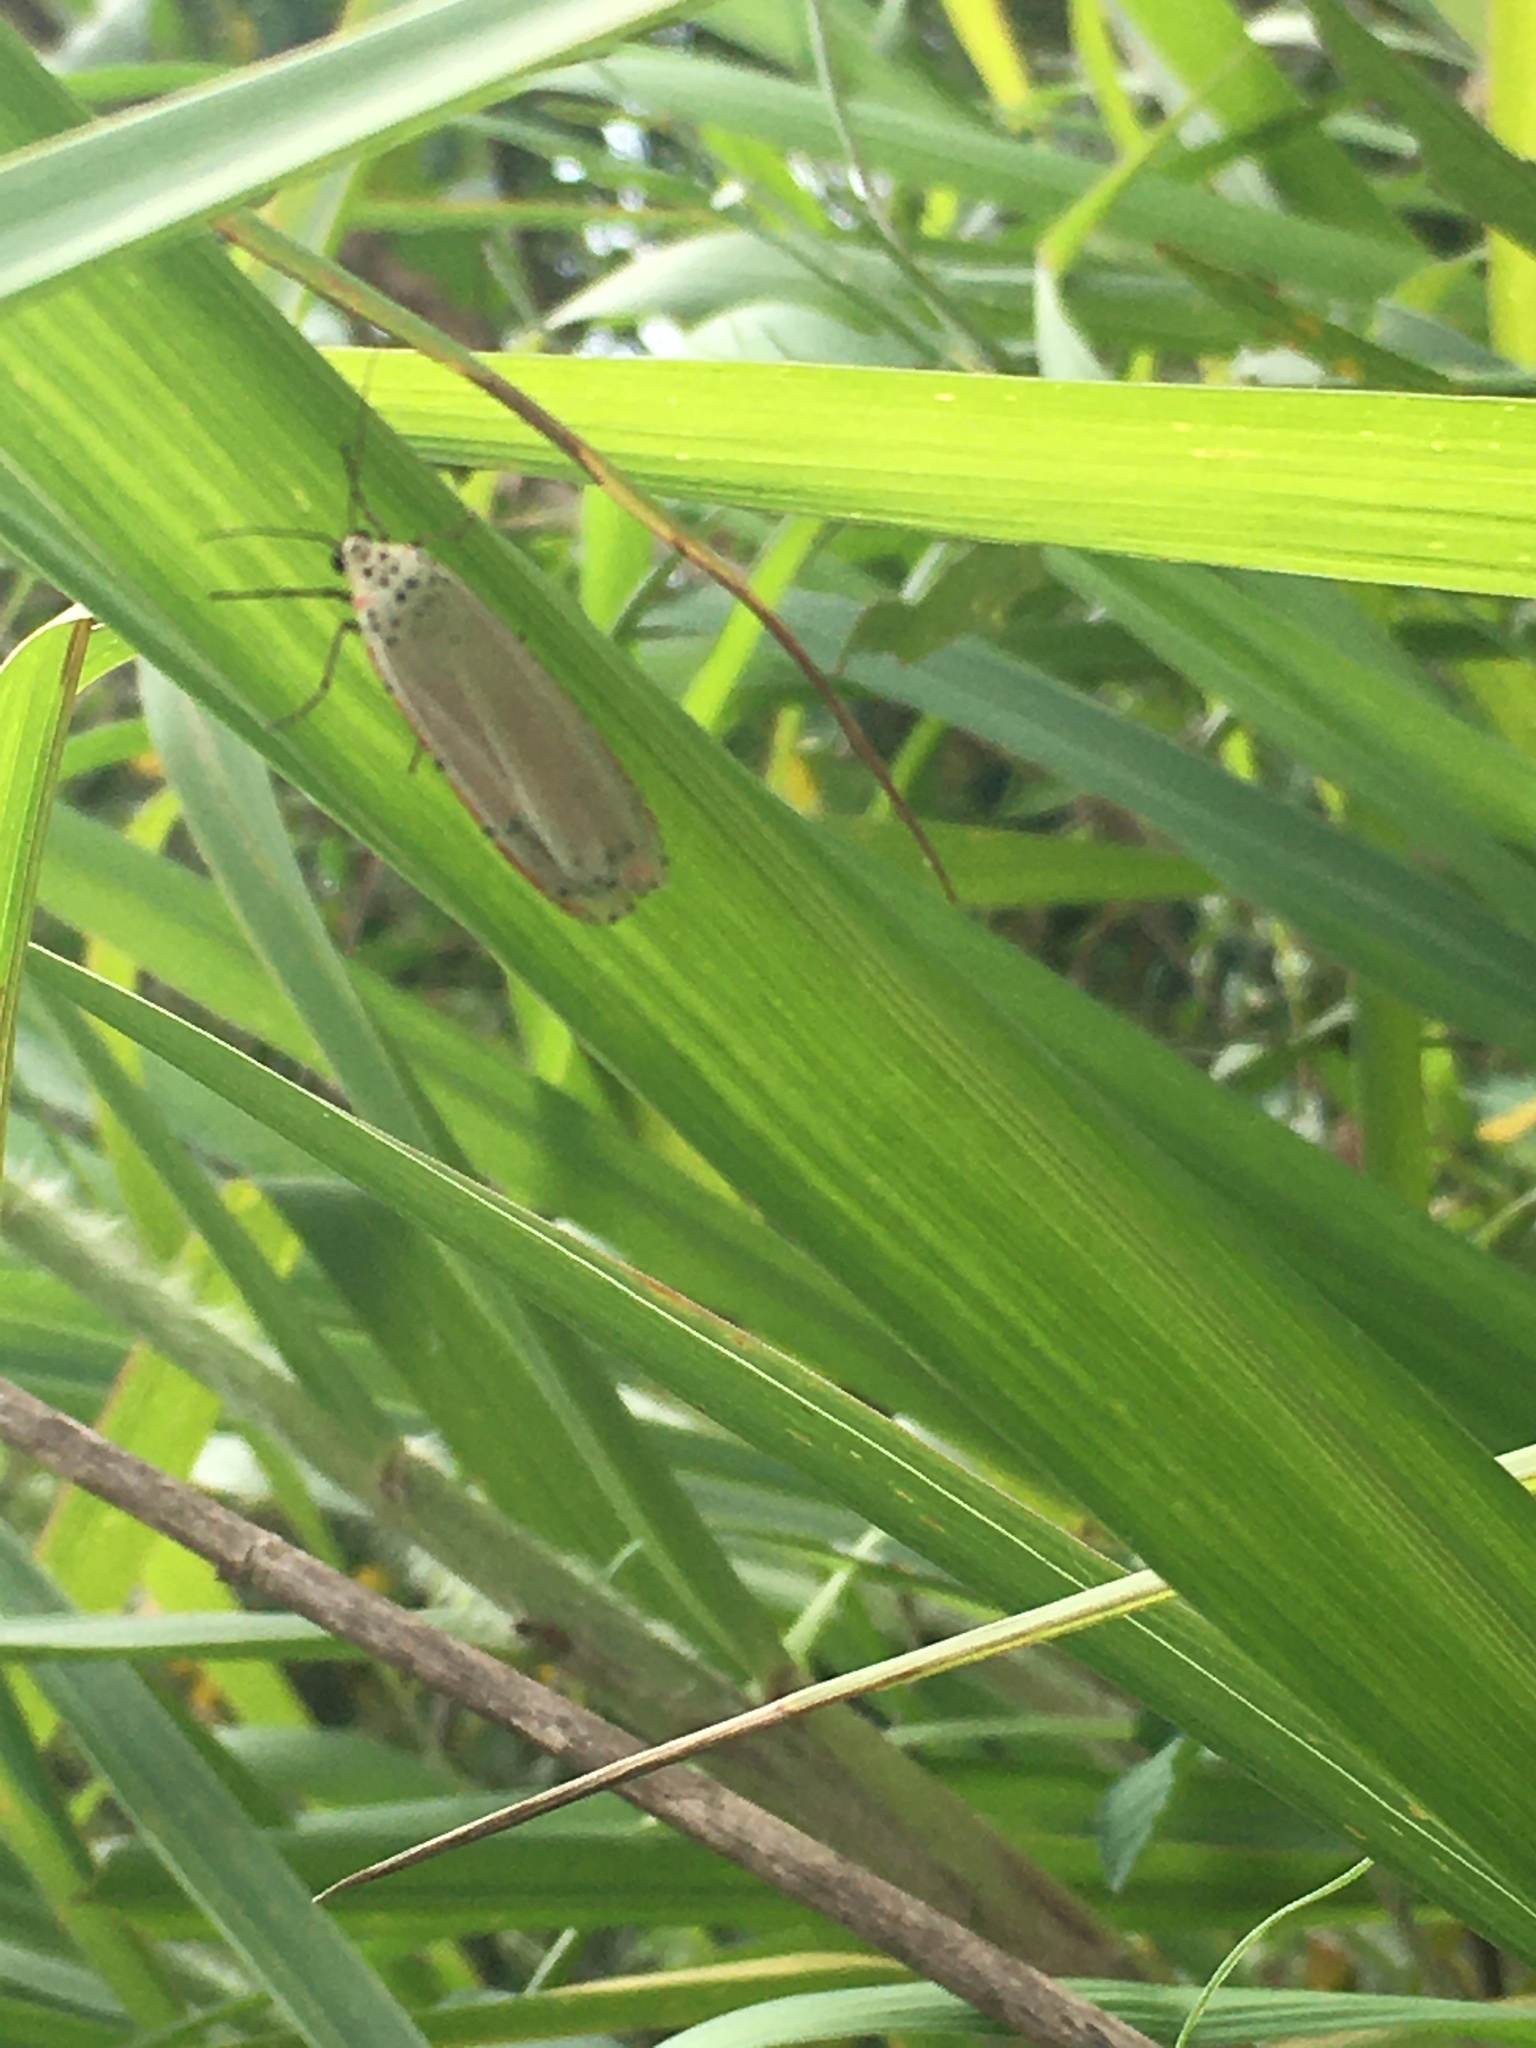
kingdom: Animalia
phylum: Arthropoda
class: Insecta
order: Lepidoptera
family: Erebidae
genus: Utetheisa
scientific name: Utetheisa ornatrix
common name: Beautiful utetheisa
